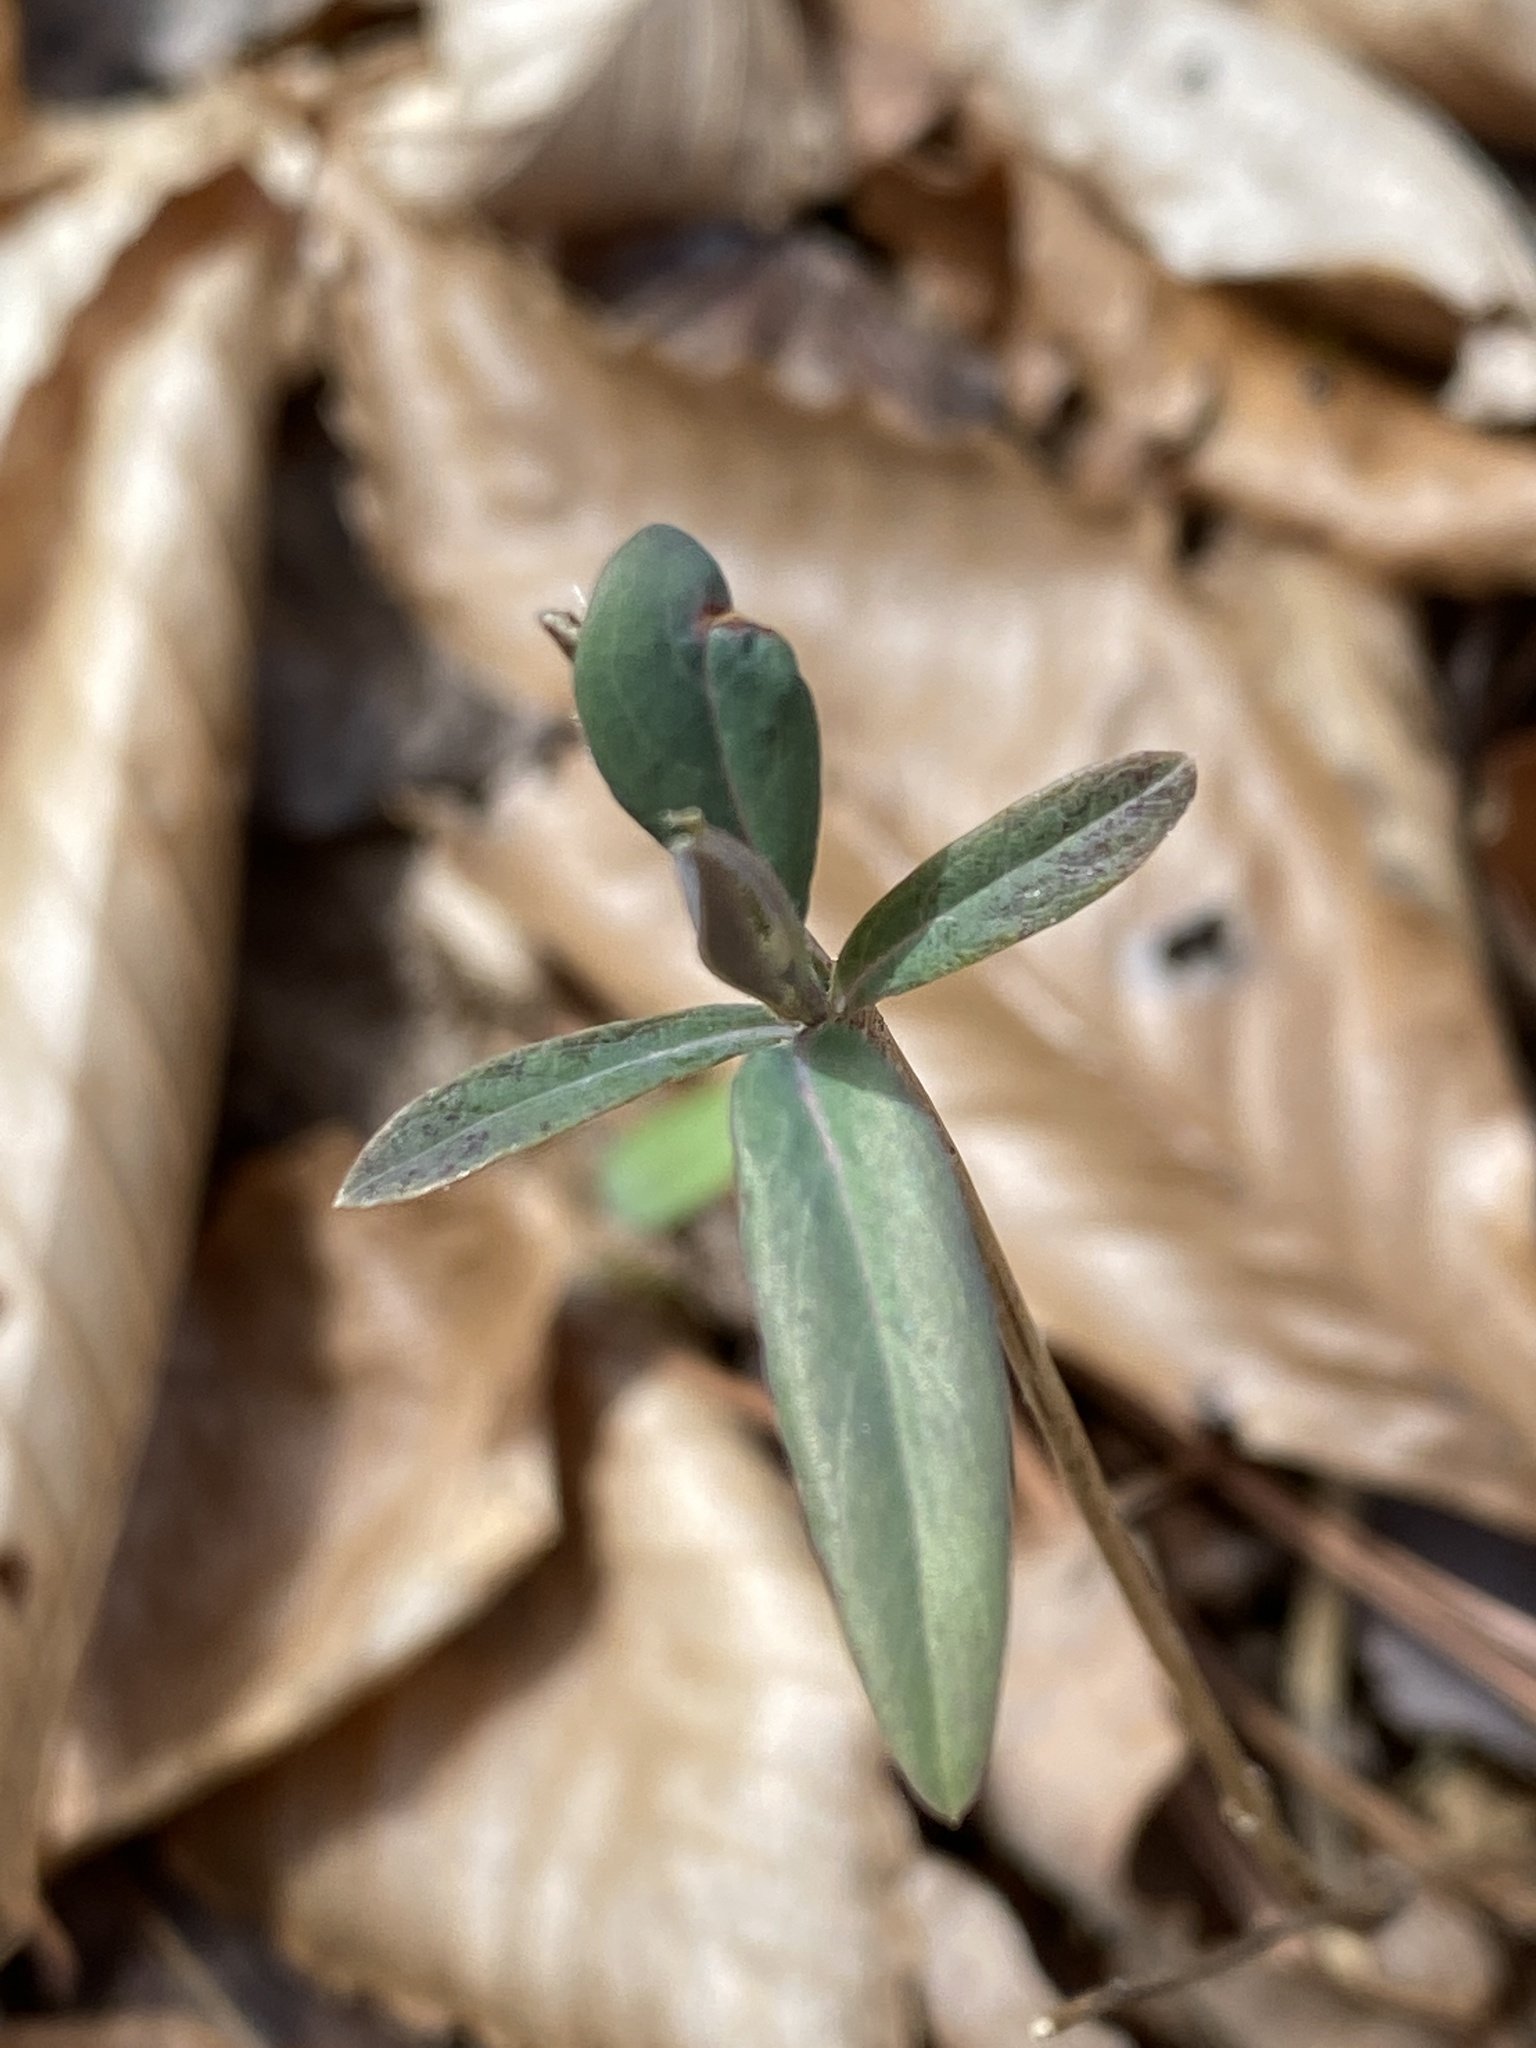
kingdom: Plantae
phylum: Tracheophyta
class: Magnoliopsida
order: Dipsacales
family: Caprifoliaceae
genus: Lonicera
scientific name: Lonicera sempervirens
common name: Coral honeysuckle
